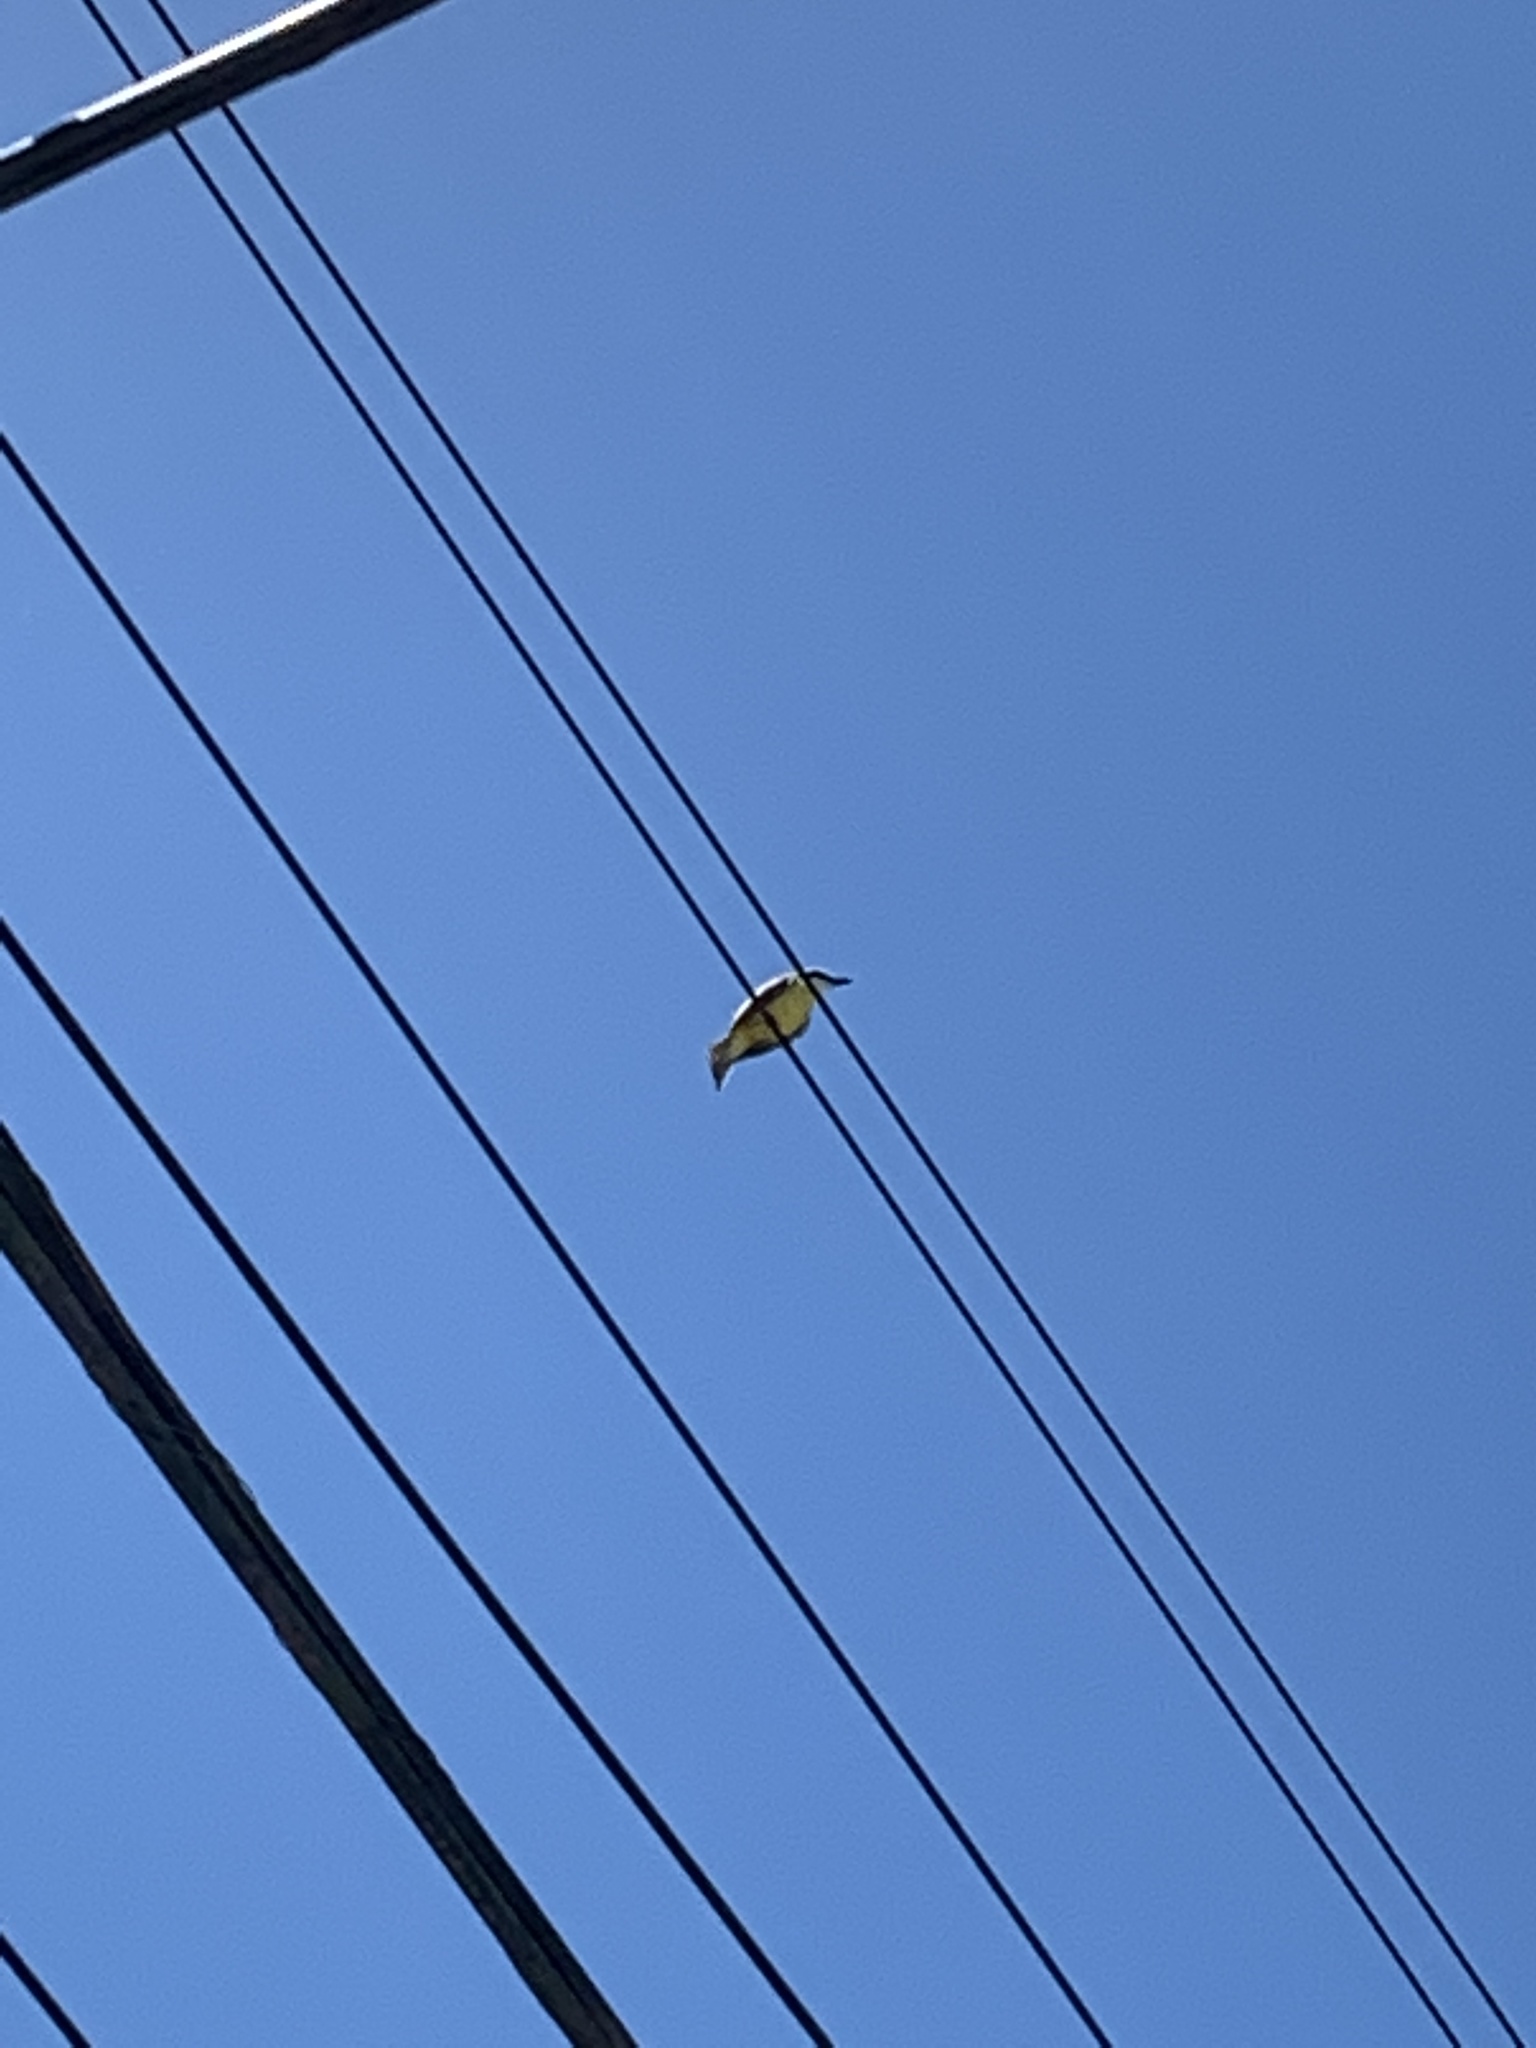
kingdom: Animalia
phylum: Chordata
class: Aves
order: Passeriformes
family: Tyrannidae
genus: Pitangus
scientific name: Pitangus sulphuratus
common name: Great kiskadee
